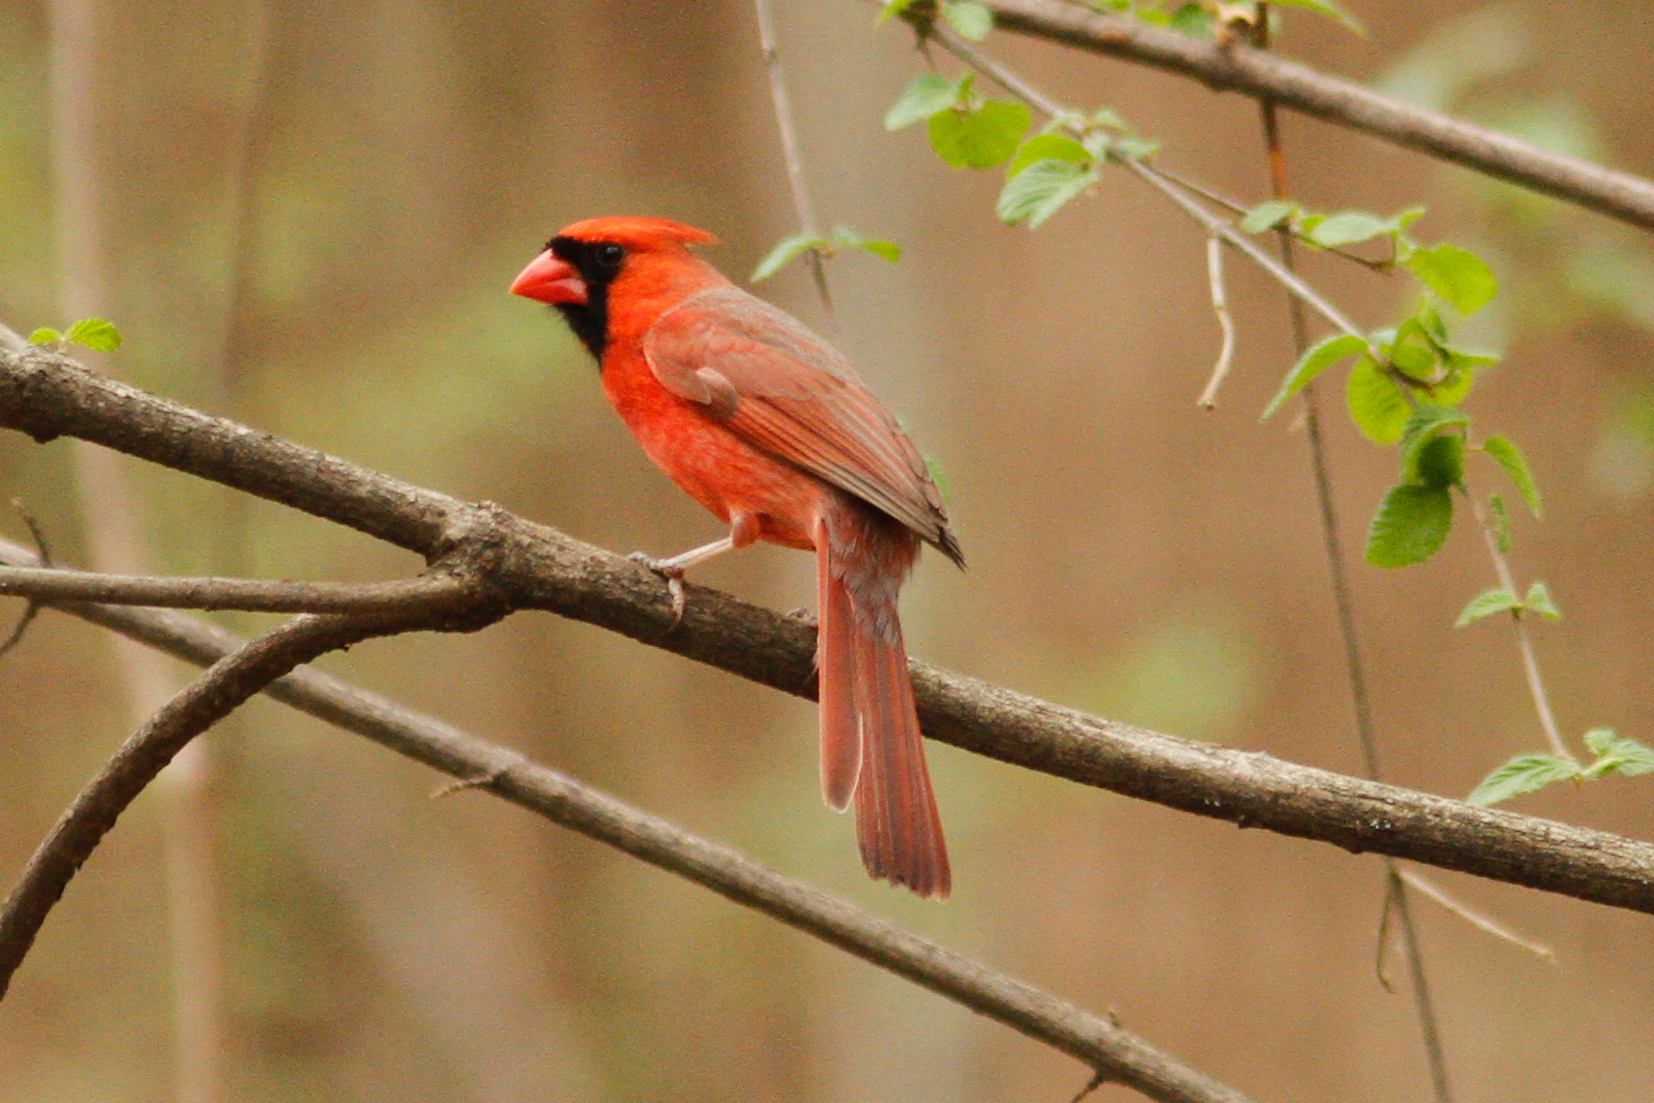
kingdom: Animalia
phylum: Chordata
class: Aves
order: Passeriformes
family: Cardinalidae
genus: Cardinalis
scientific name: Cardinalis cardinalis
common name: Northern cardinal
